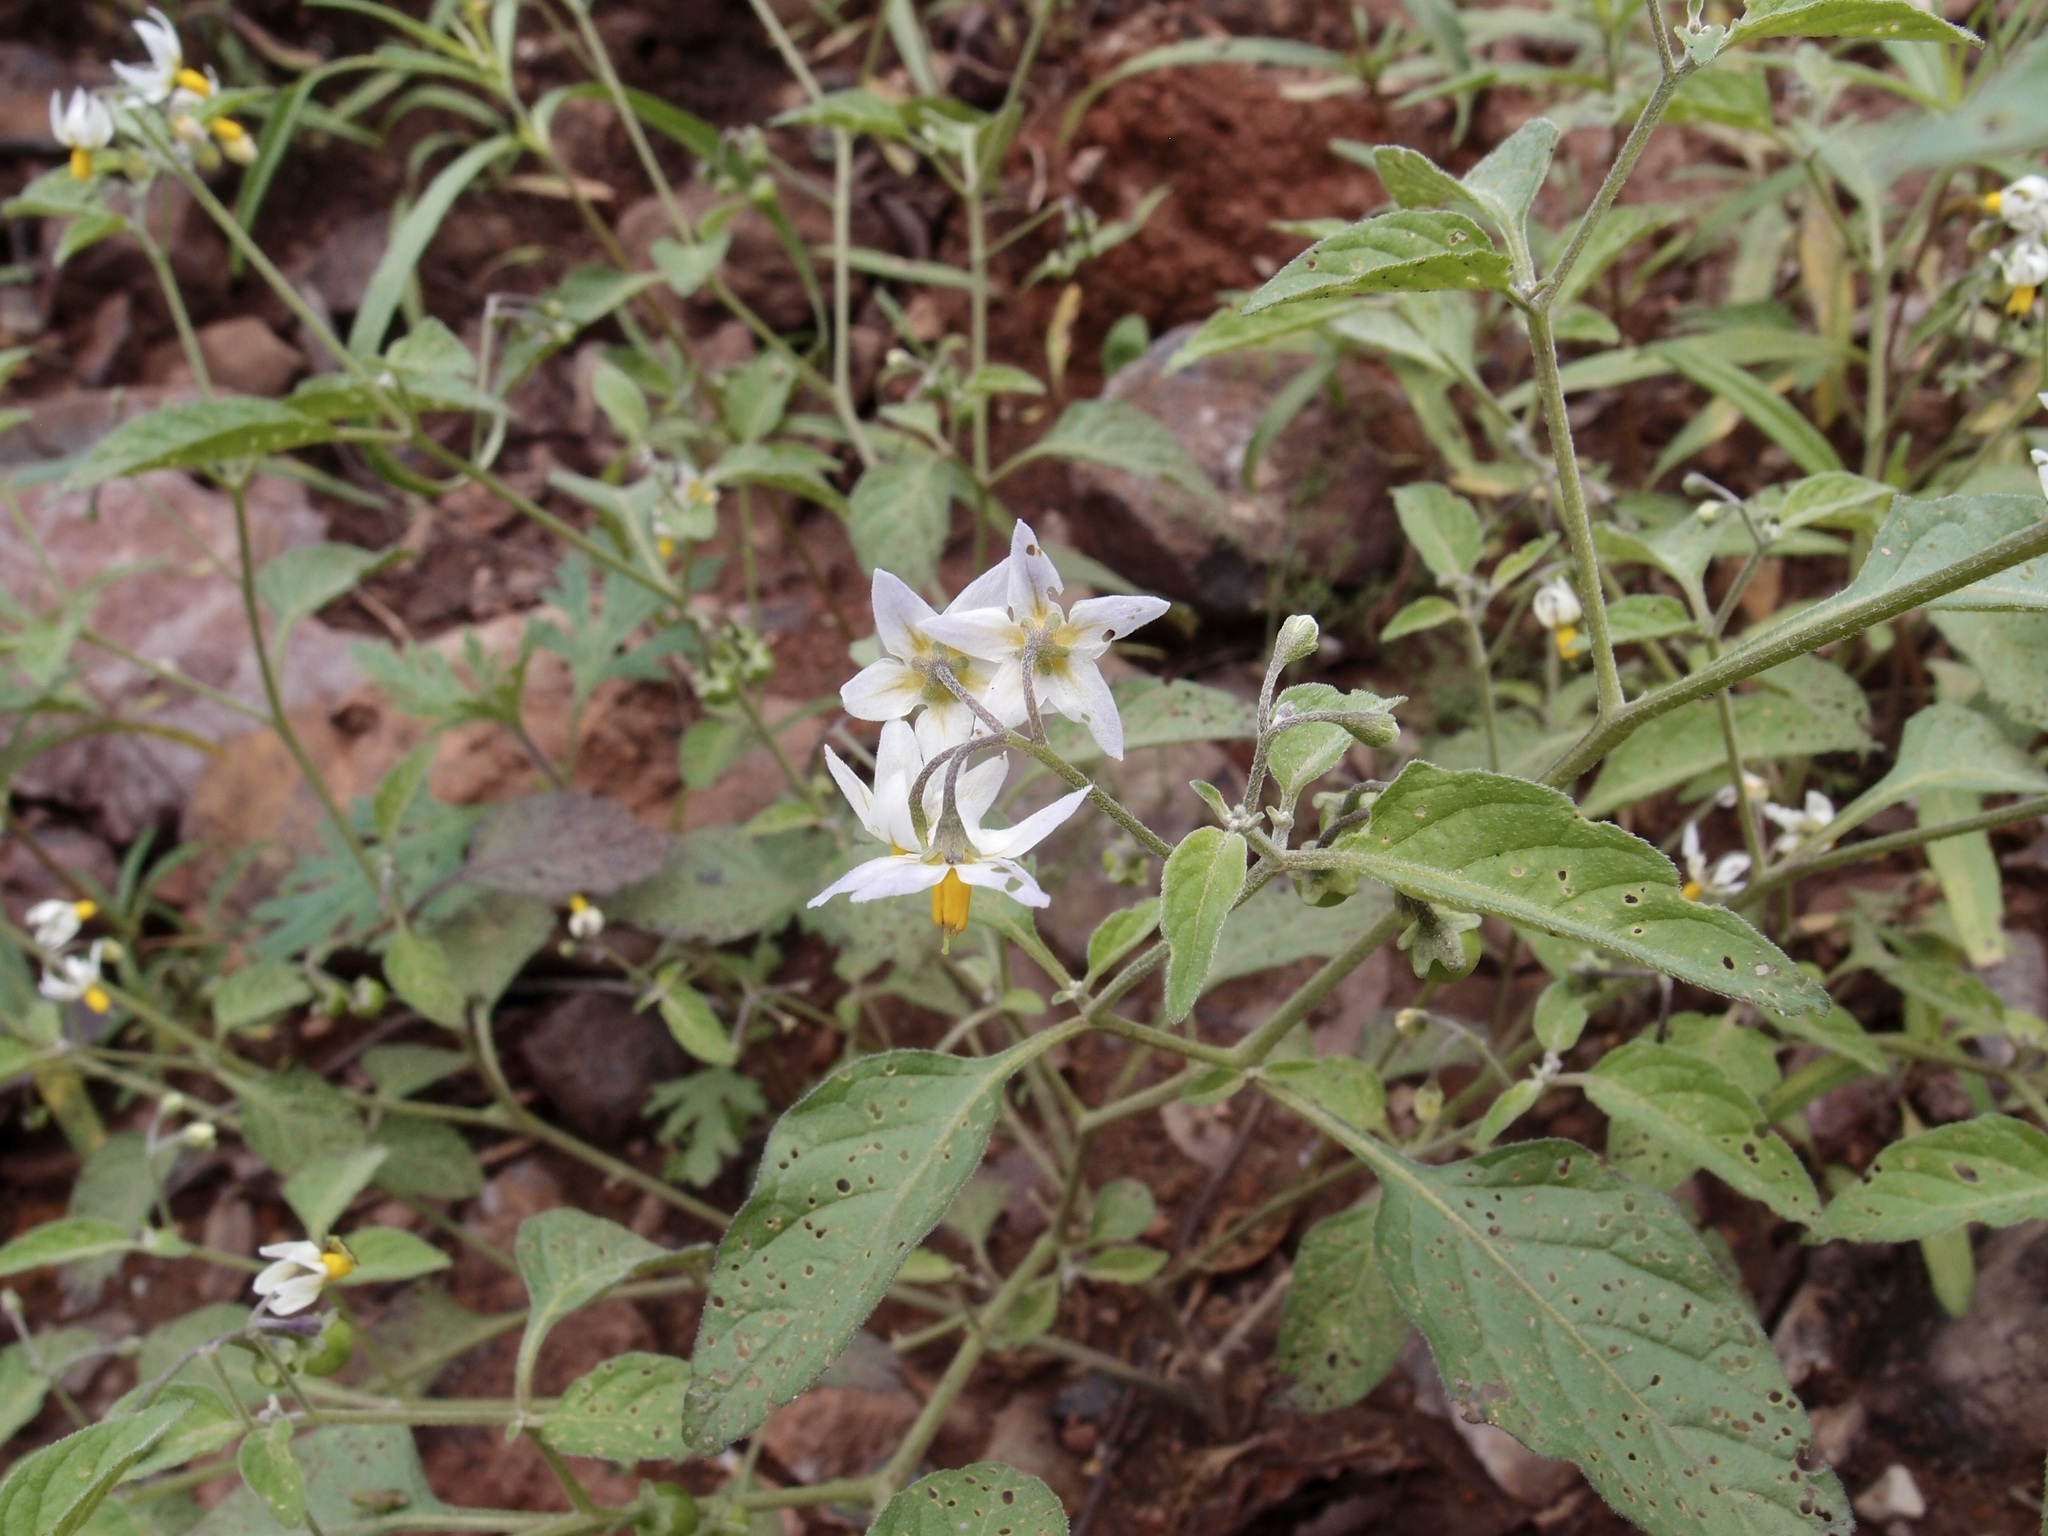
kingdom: Plantae
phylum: Tracheophyta
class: Magnoliopsida
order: Solanales
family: Solanaceae
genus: Solanum
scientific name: Solanum douglasii
